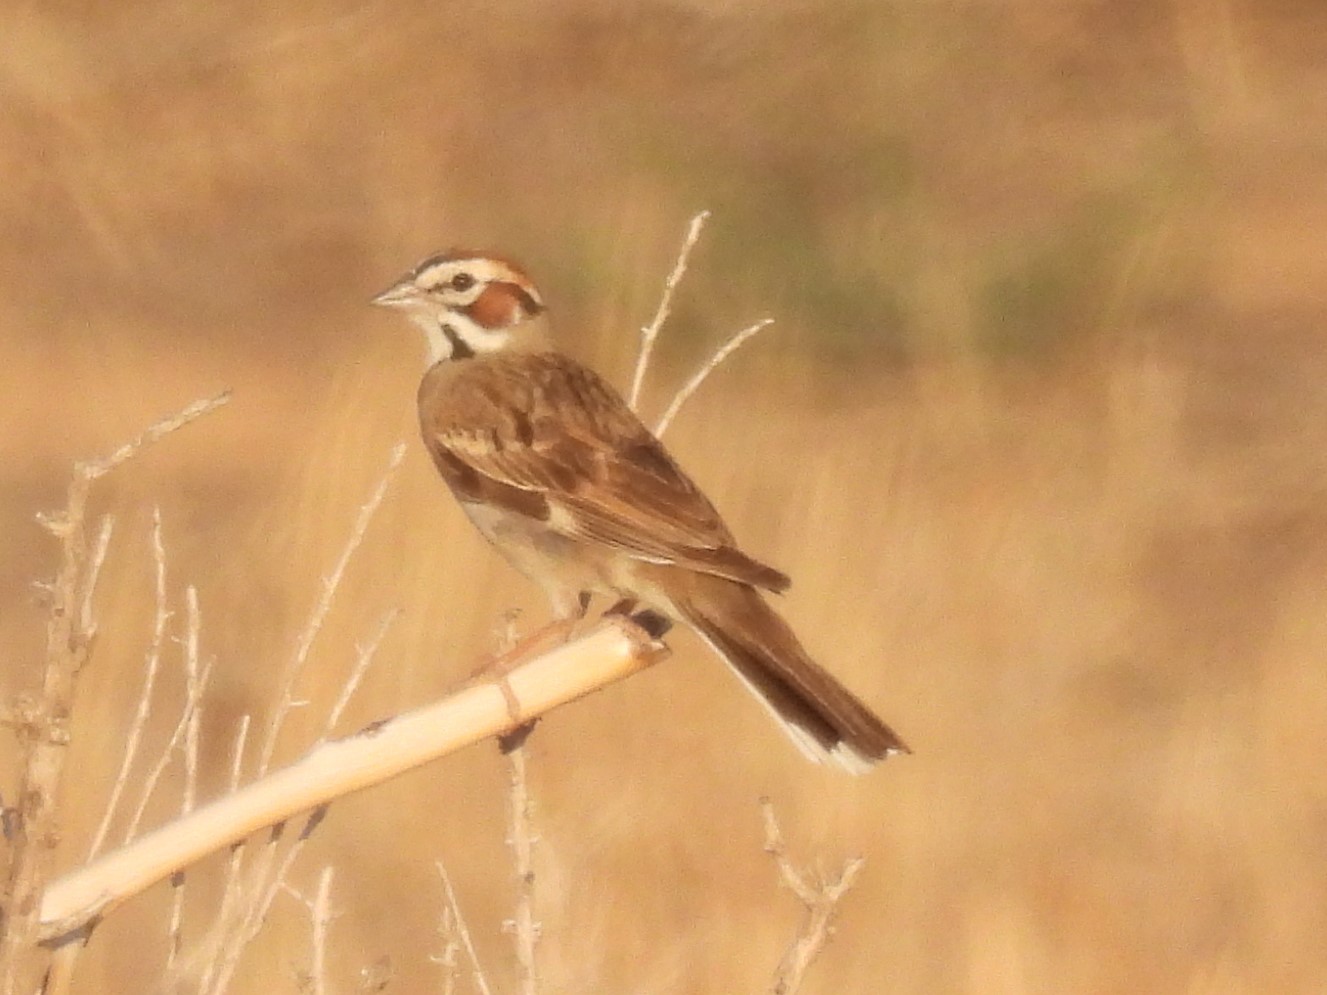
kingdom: Animalia
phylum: Chordata
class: Aves
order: Passeriformes
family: Passerellidae
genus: Chondestes
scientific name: Chondestes grammacus
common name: Lark sparrow
